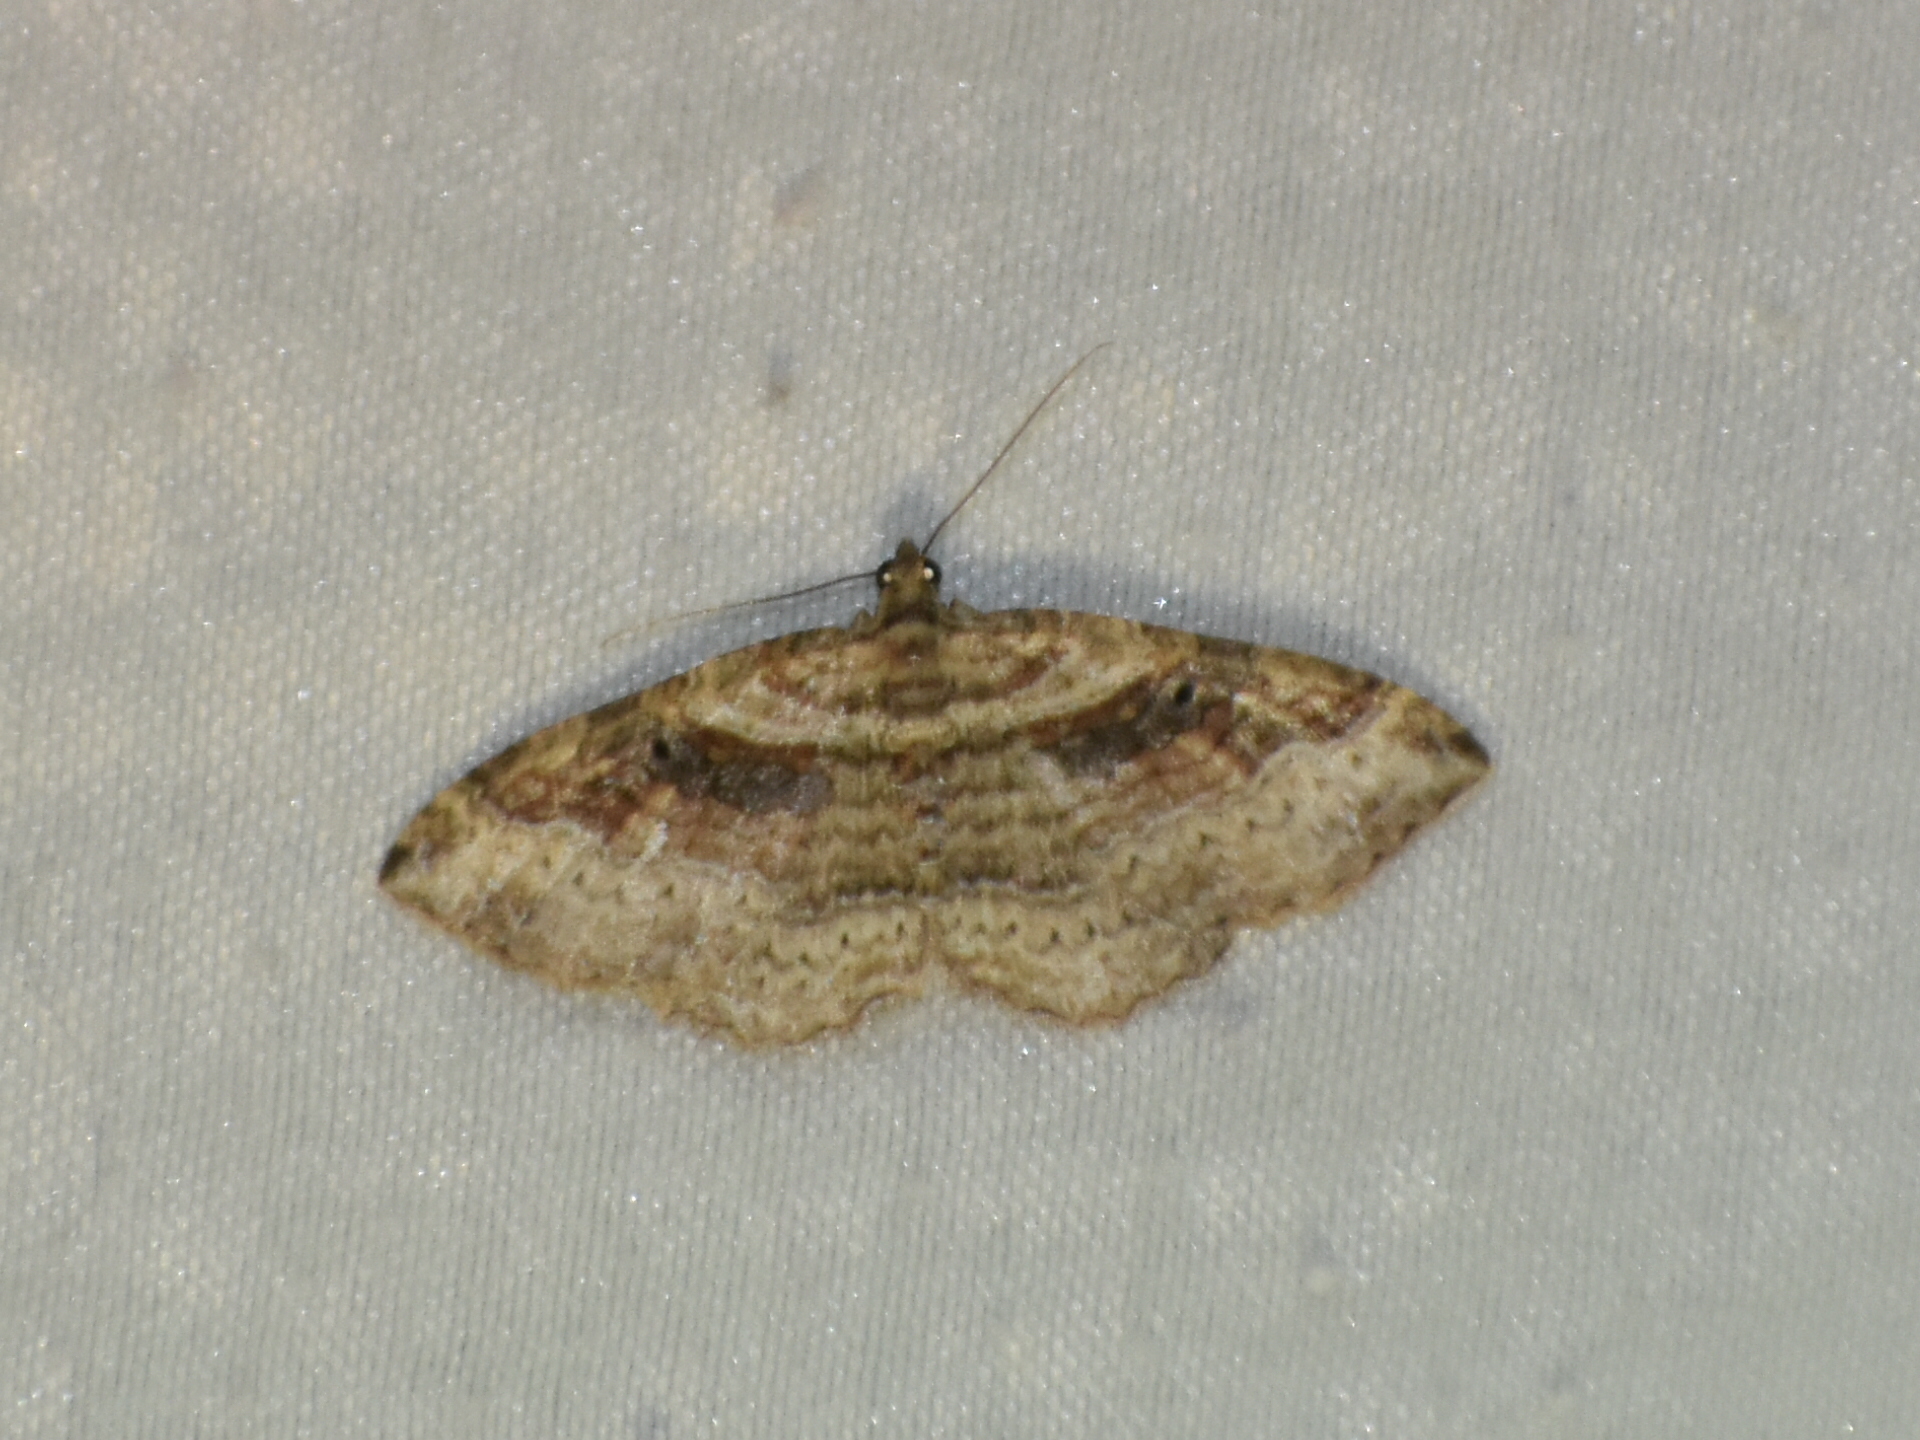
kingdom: Animalia
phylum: Arthropoda
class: Insecta
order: Lepidoptera
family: Geometridae
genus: Costaconvexa
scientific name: Costaconvexa centrostrigaria
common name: Bent-line carpet
